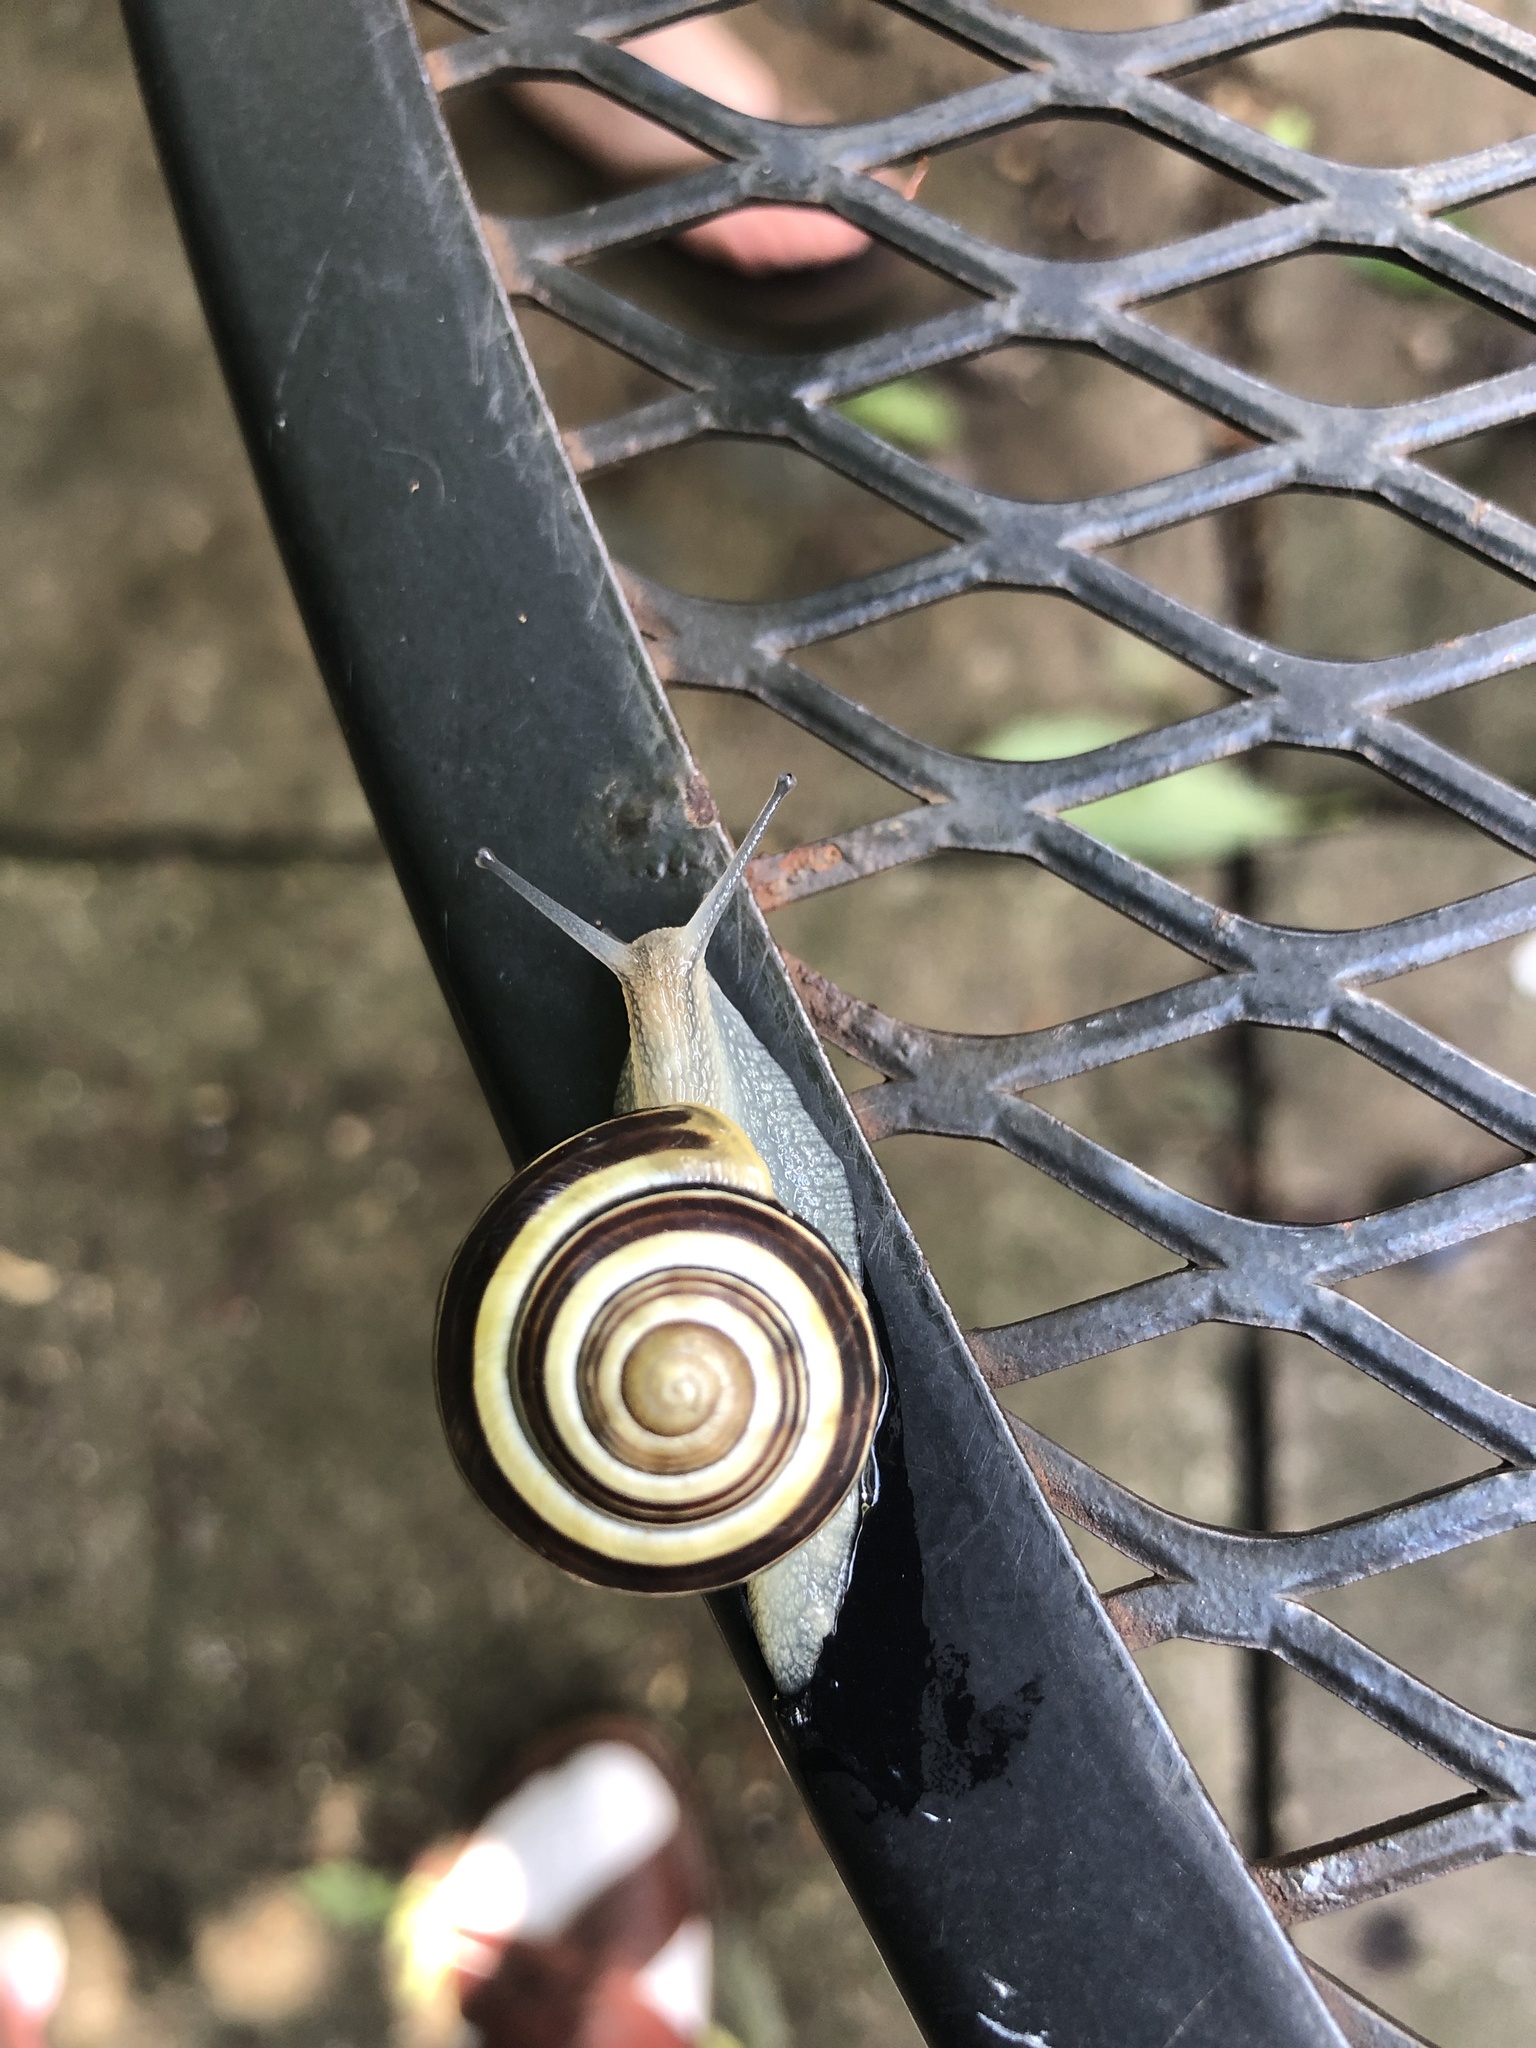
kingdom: Animalia
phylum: Mollusca
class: Gastropoda
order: Stylommatophora
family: Helicidae
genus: Cepaea
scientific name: Cepaea nemoralis
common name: Grovesnail
